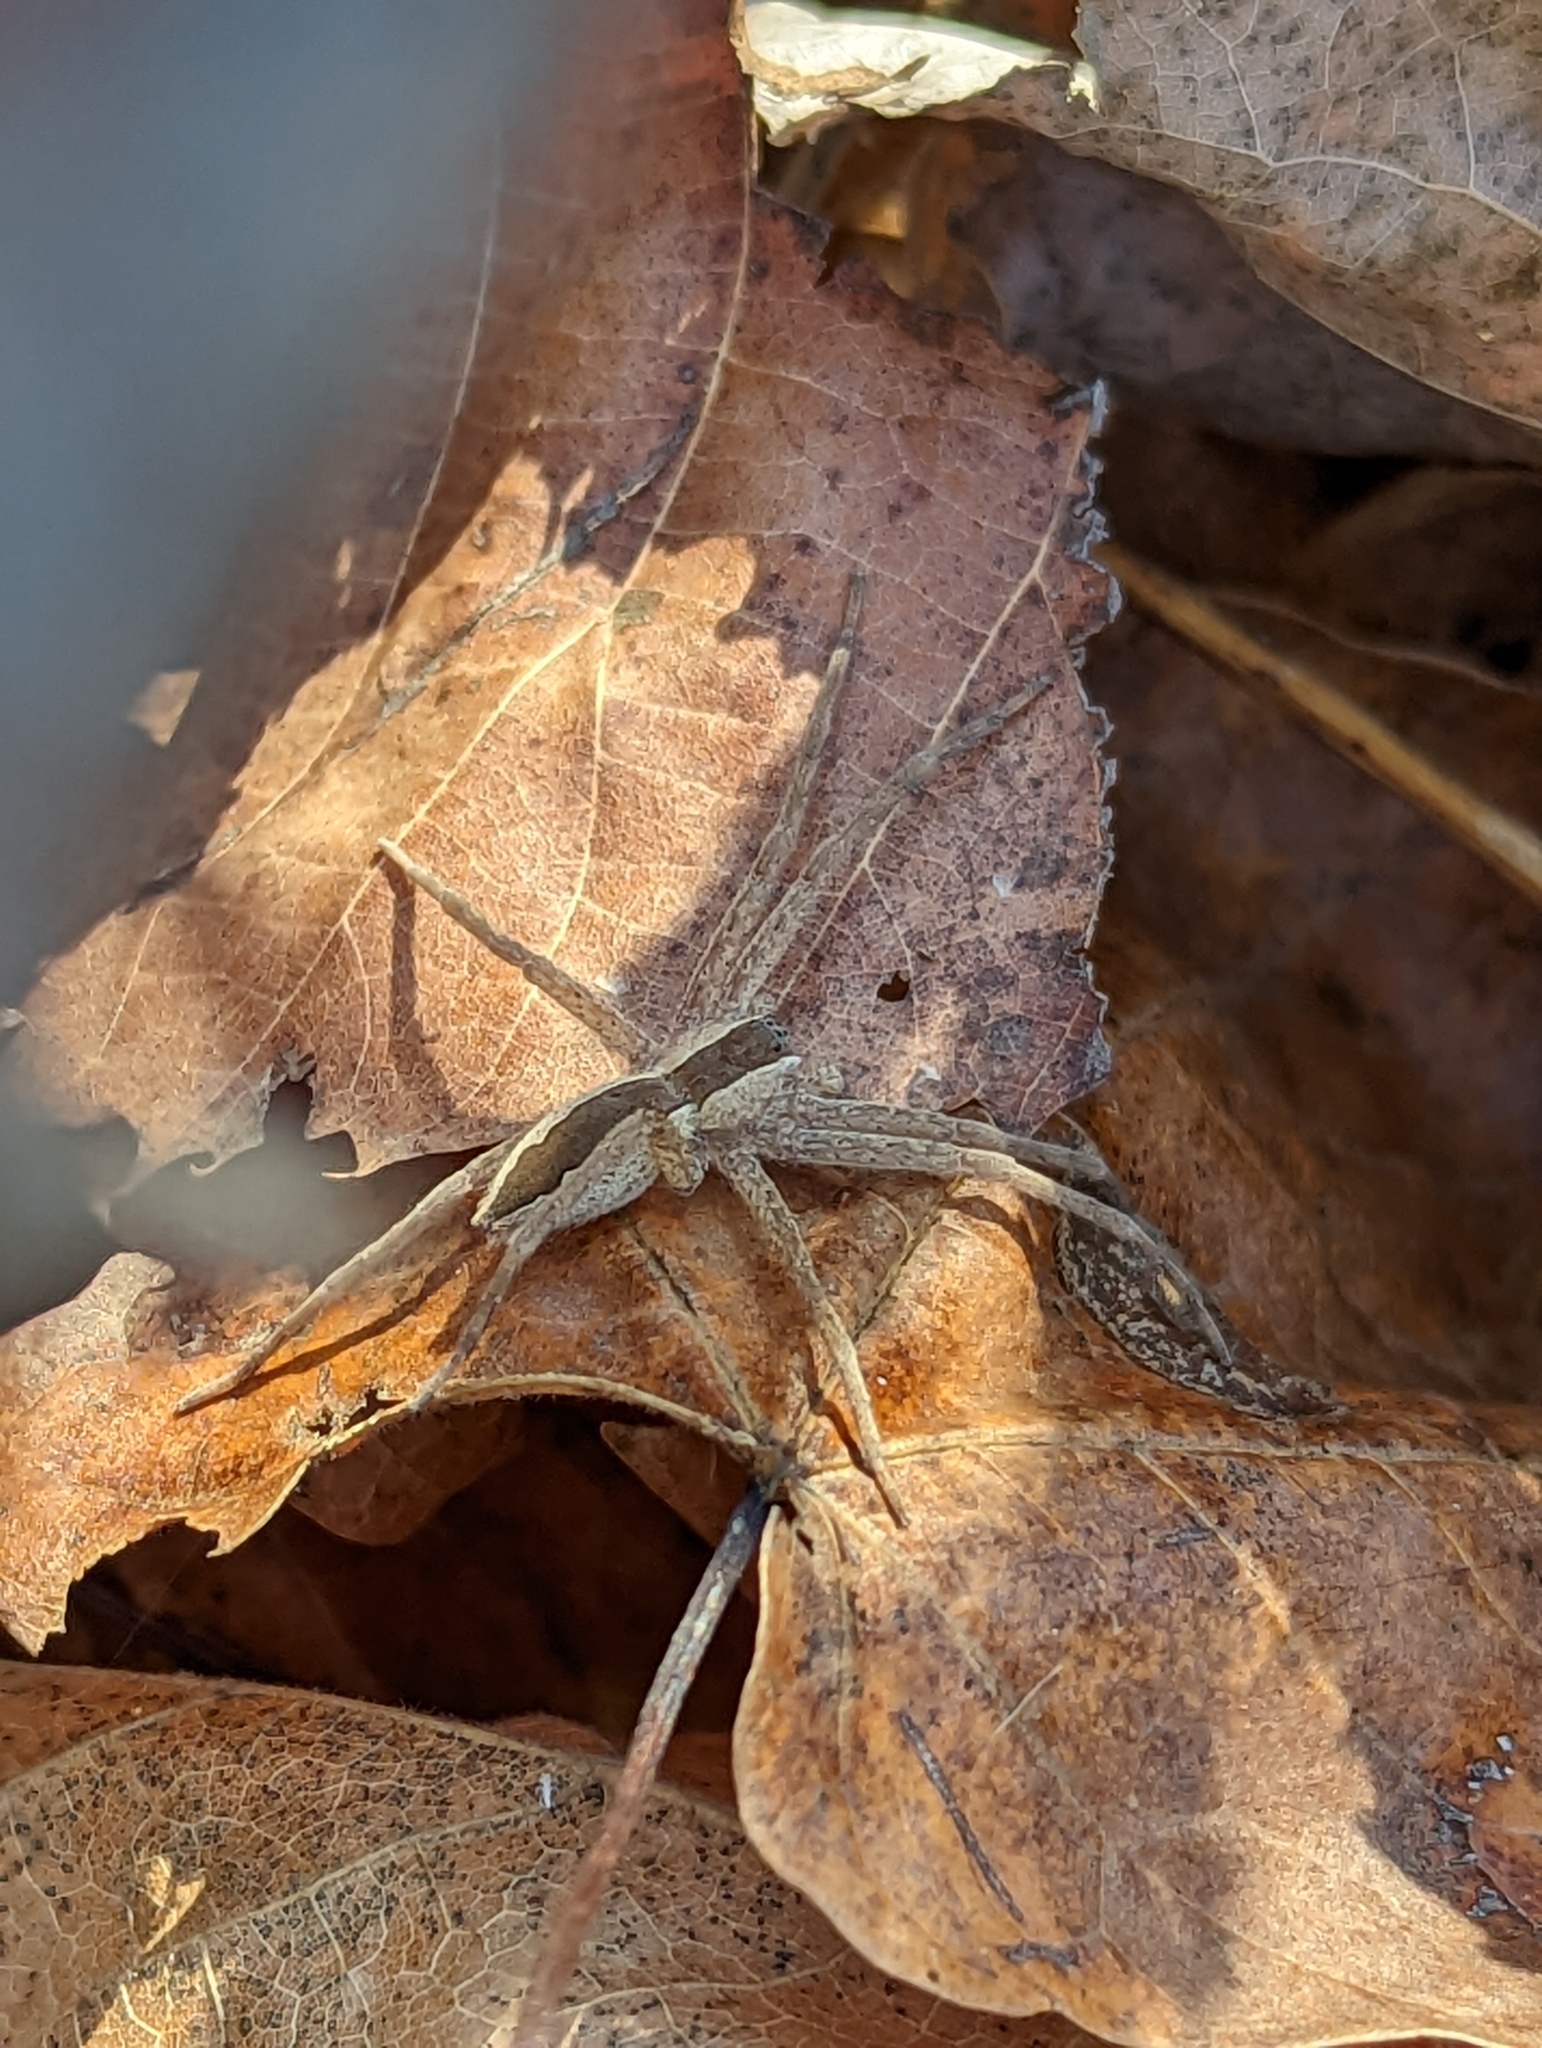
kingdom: Animalia
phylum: Arthropoda
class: Arachnida
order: Araneae
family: Pisauridae
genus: Pisaurina
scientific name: Pisaurina mira
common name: American nursery web spider
